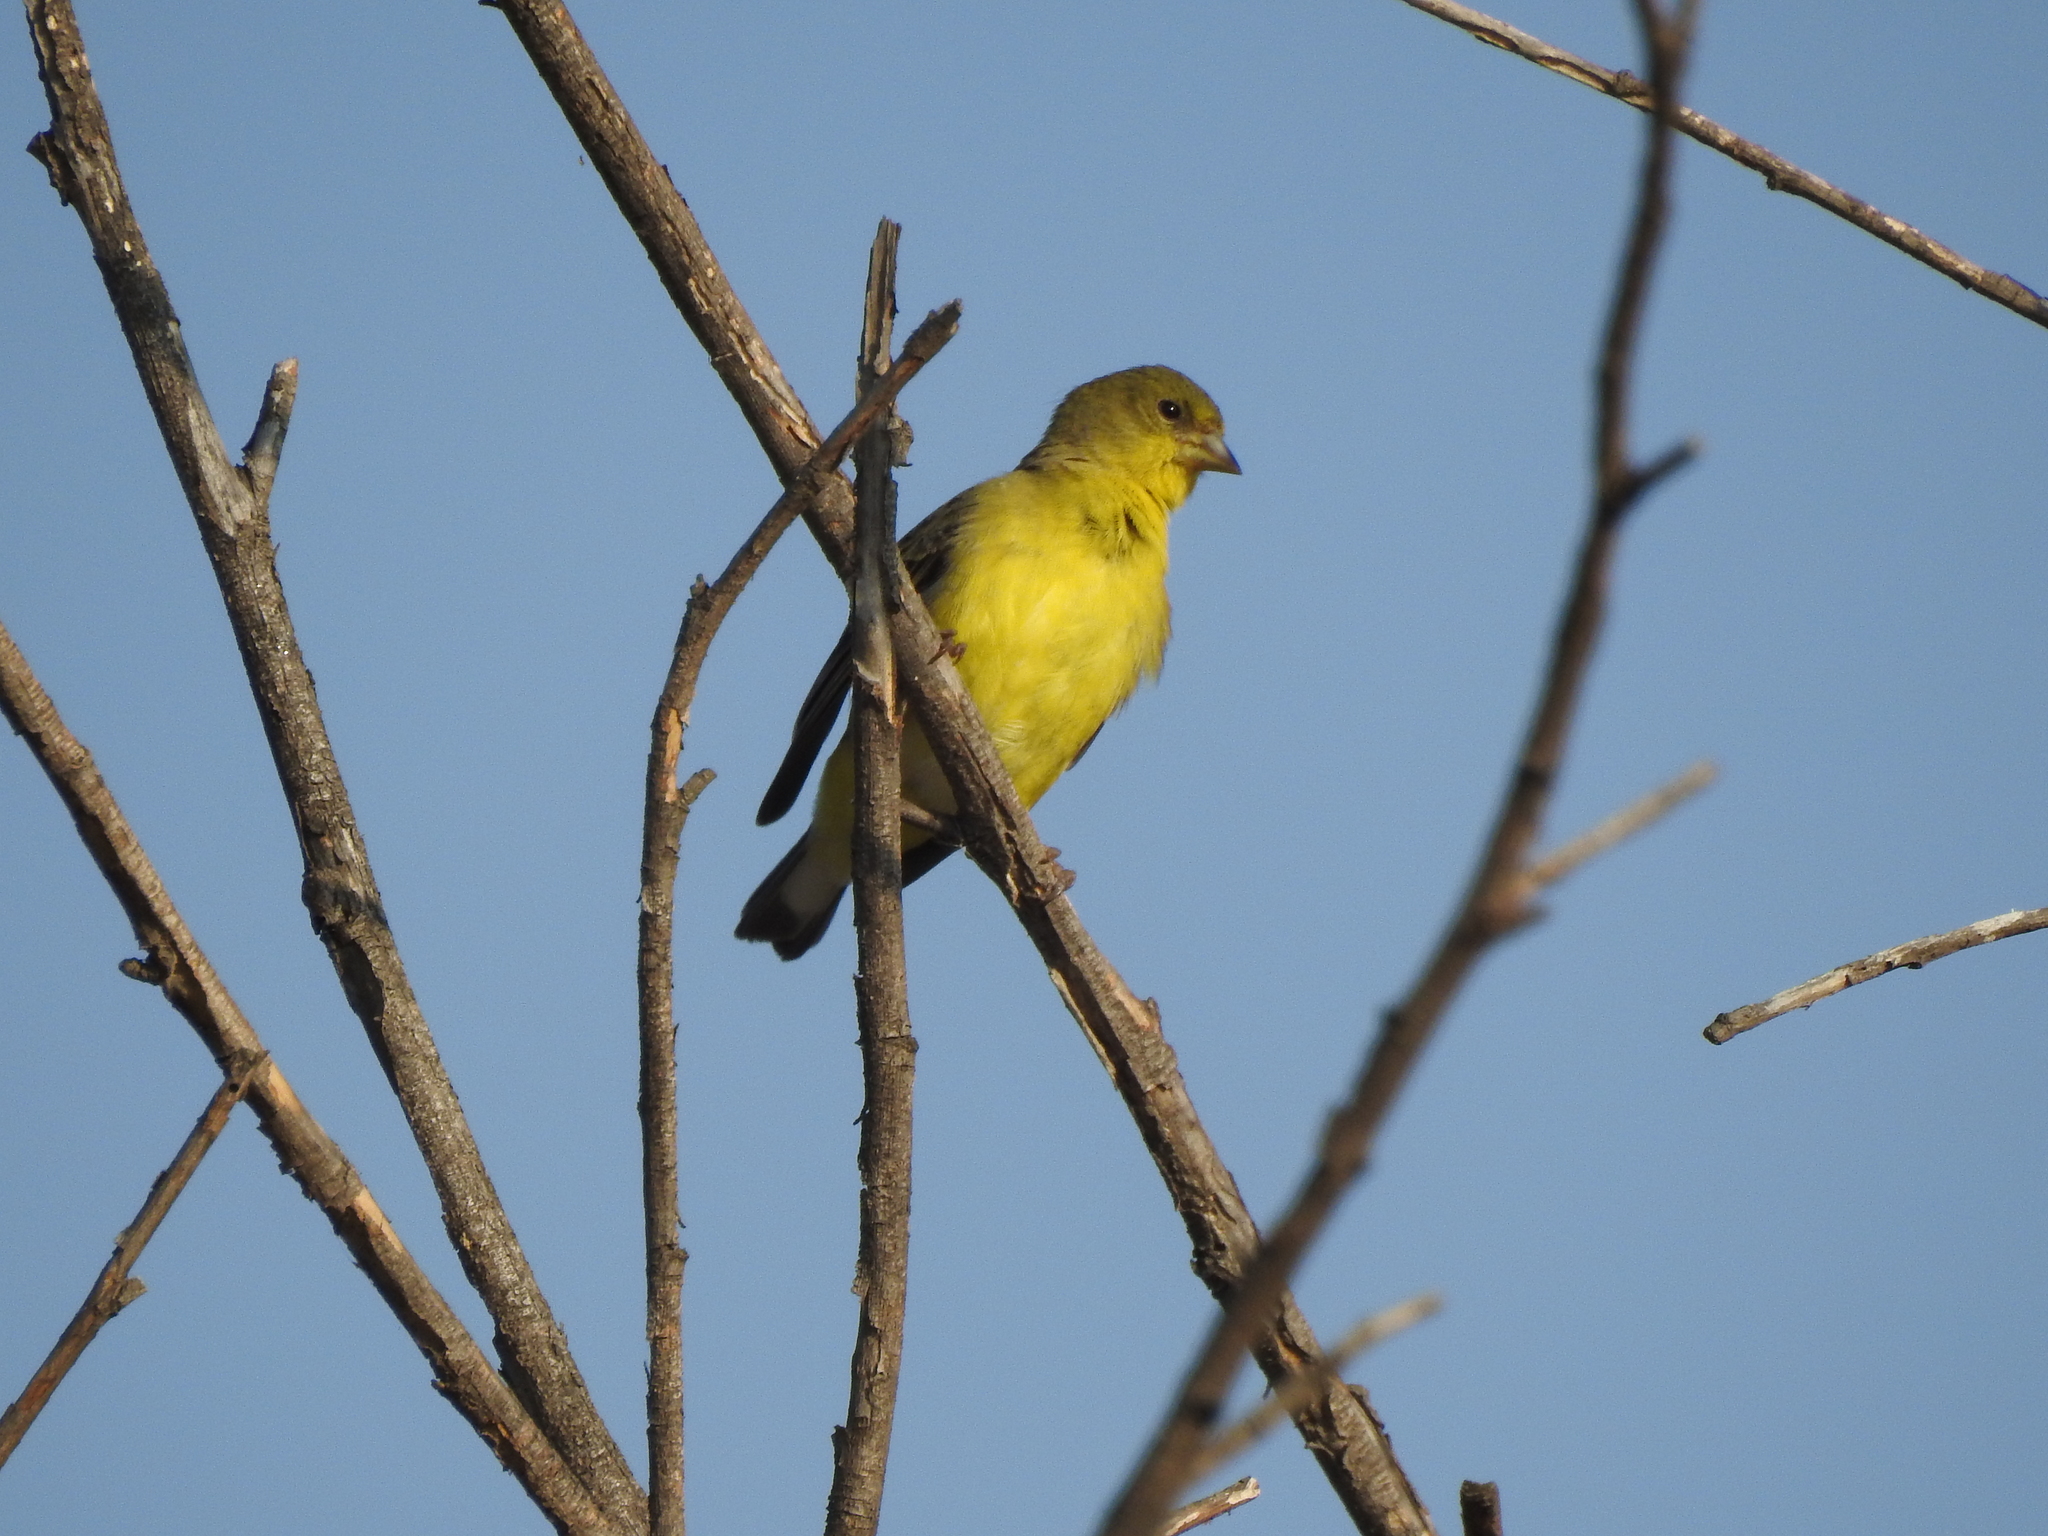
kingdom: Animalia
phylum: Chordata
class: Aves
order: Passeriformes
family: Fringillidae
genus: Spinus
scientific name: Spinus psaltria
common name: Lesser goldfinch
